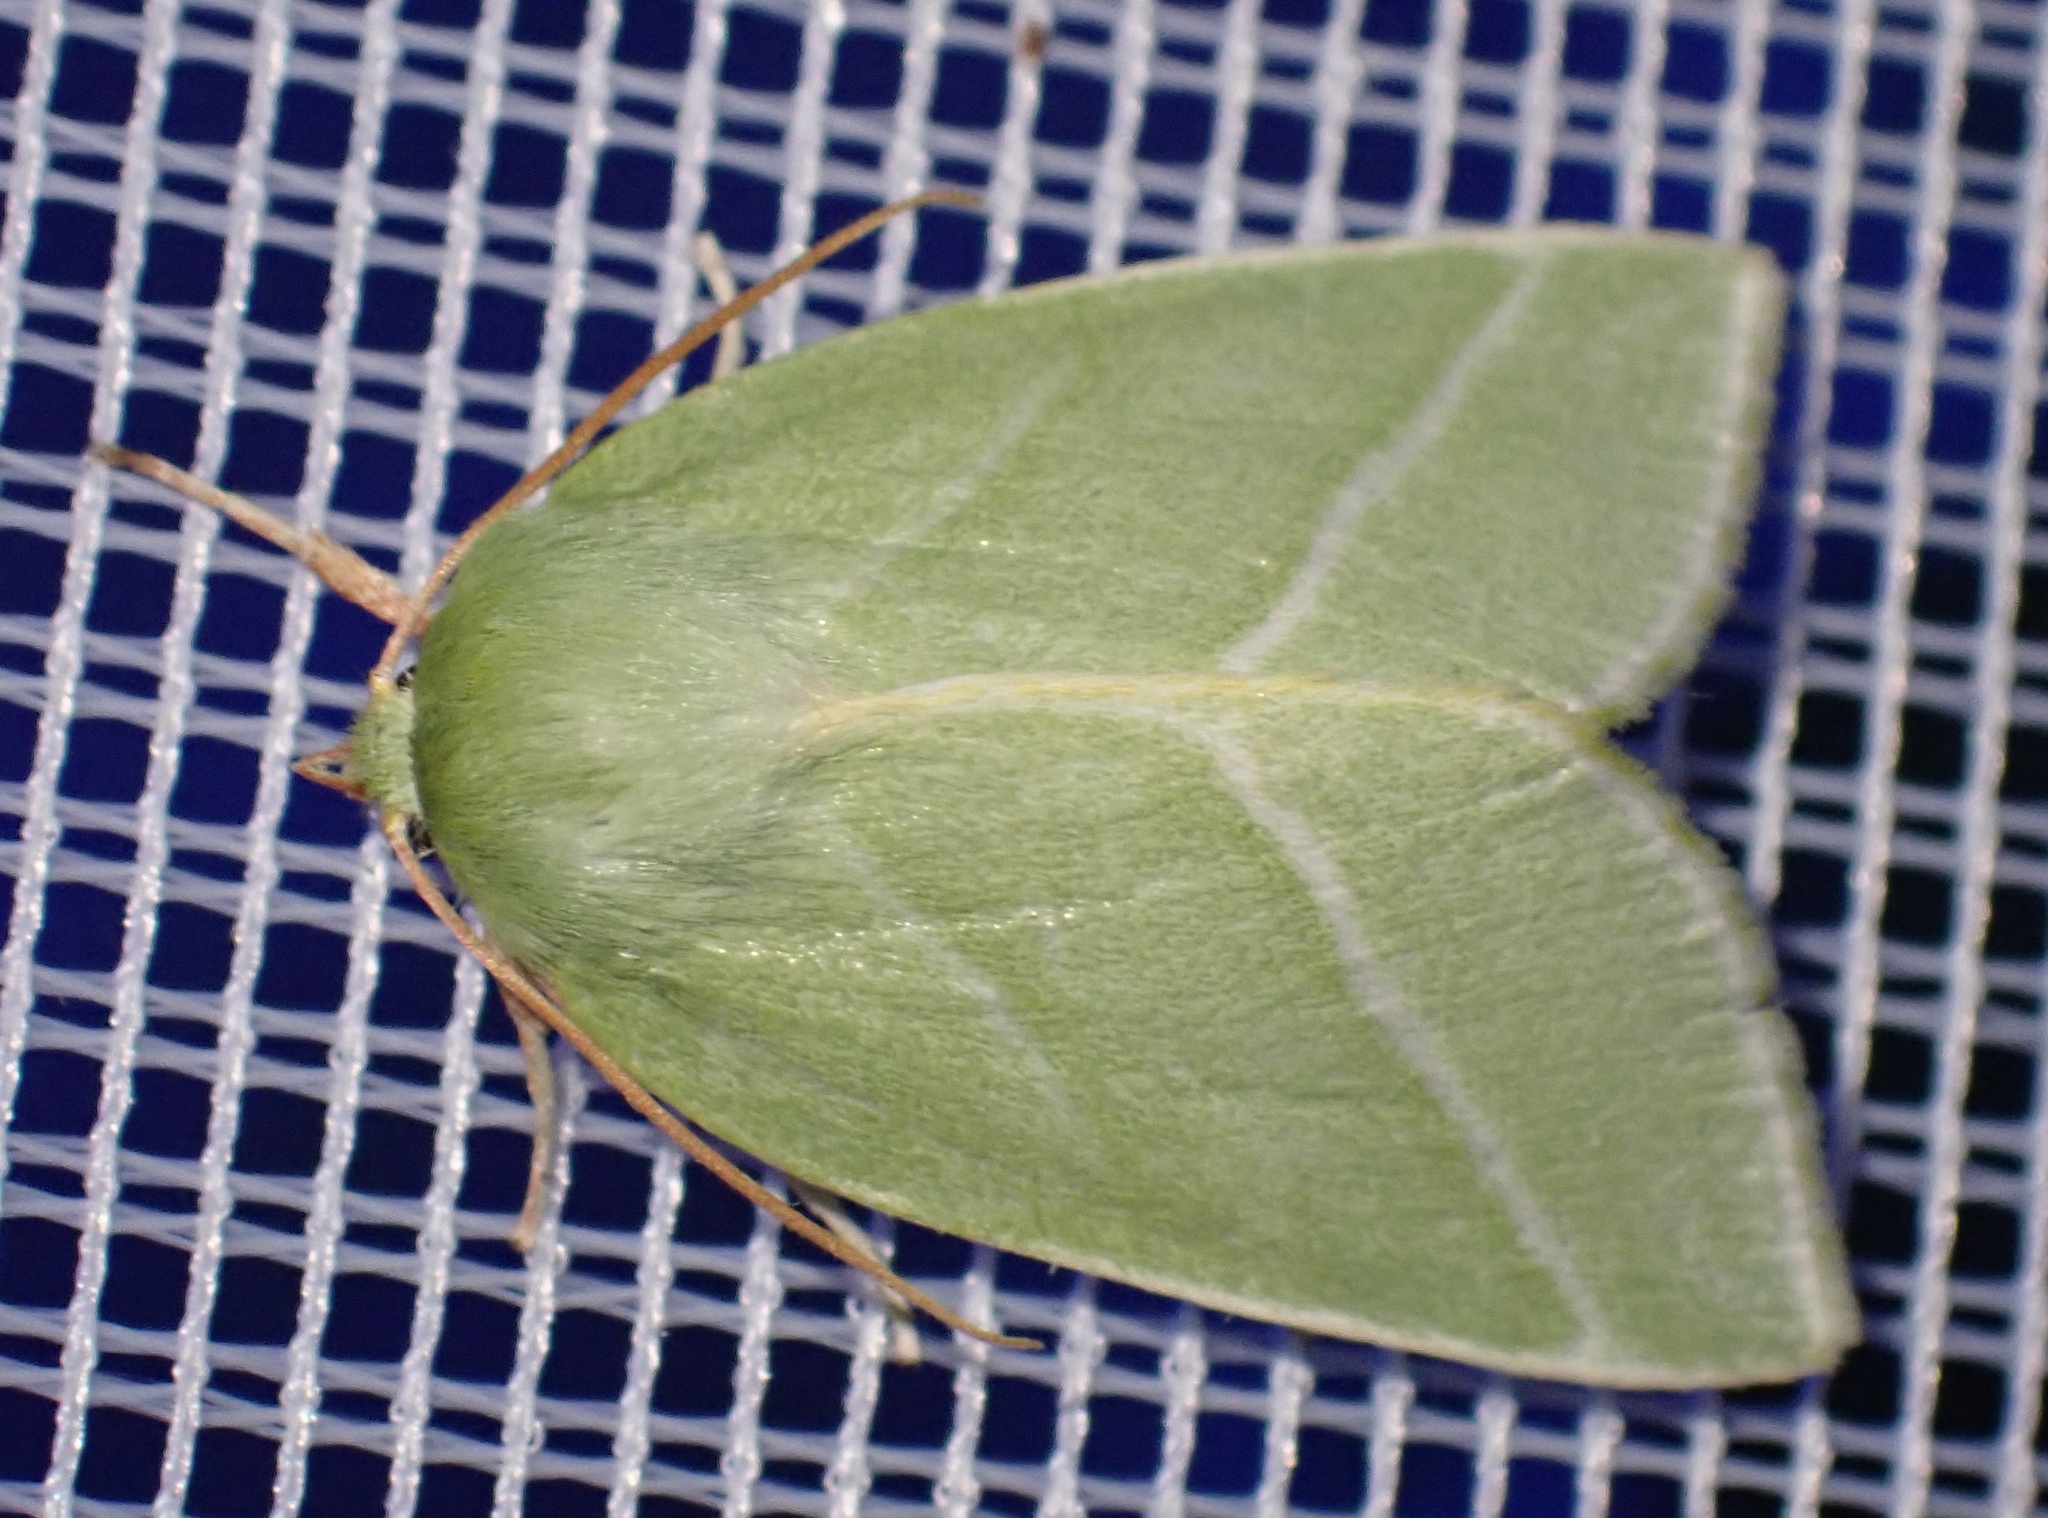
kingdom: Animalia
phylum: Arthropoda
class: Insecta
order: Lepidoptera
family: Nolidae
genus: Pseudoips
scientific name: Pseudoips prasinana
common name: Green silver-lines
